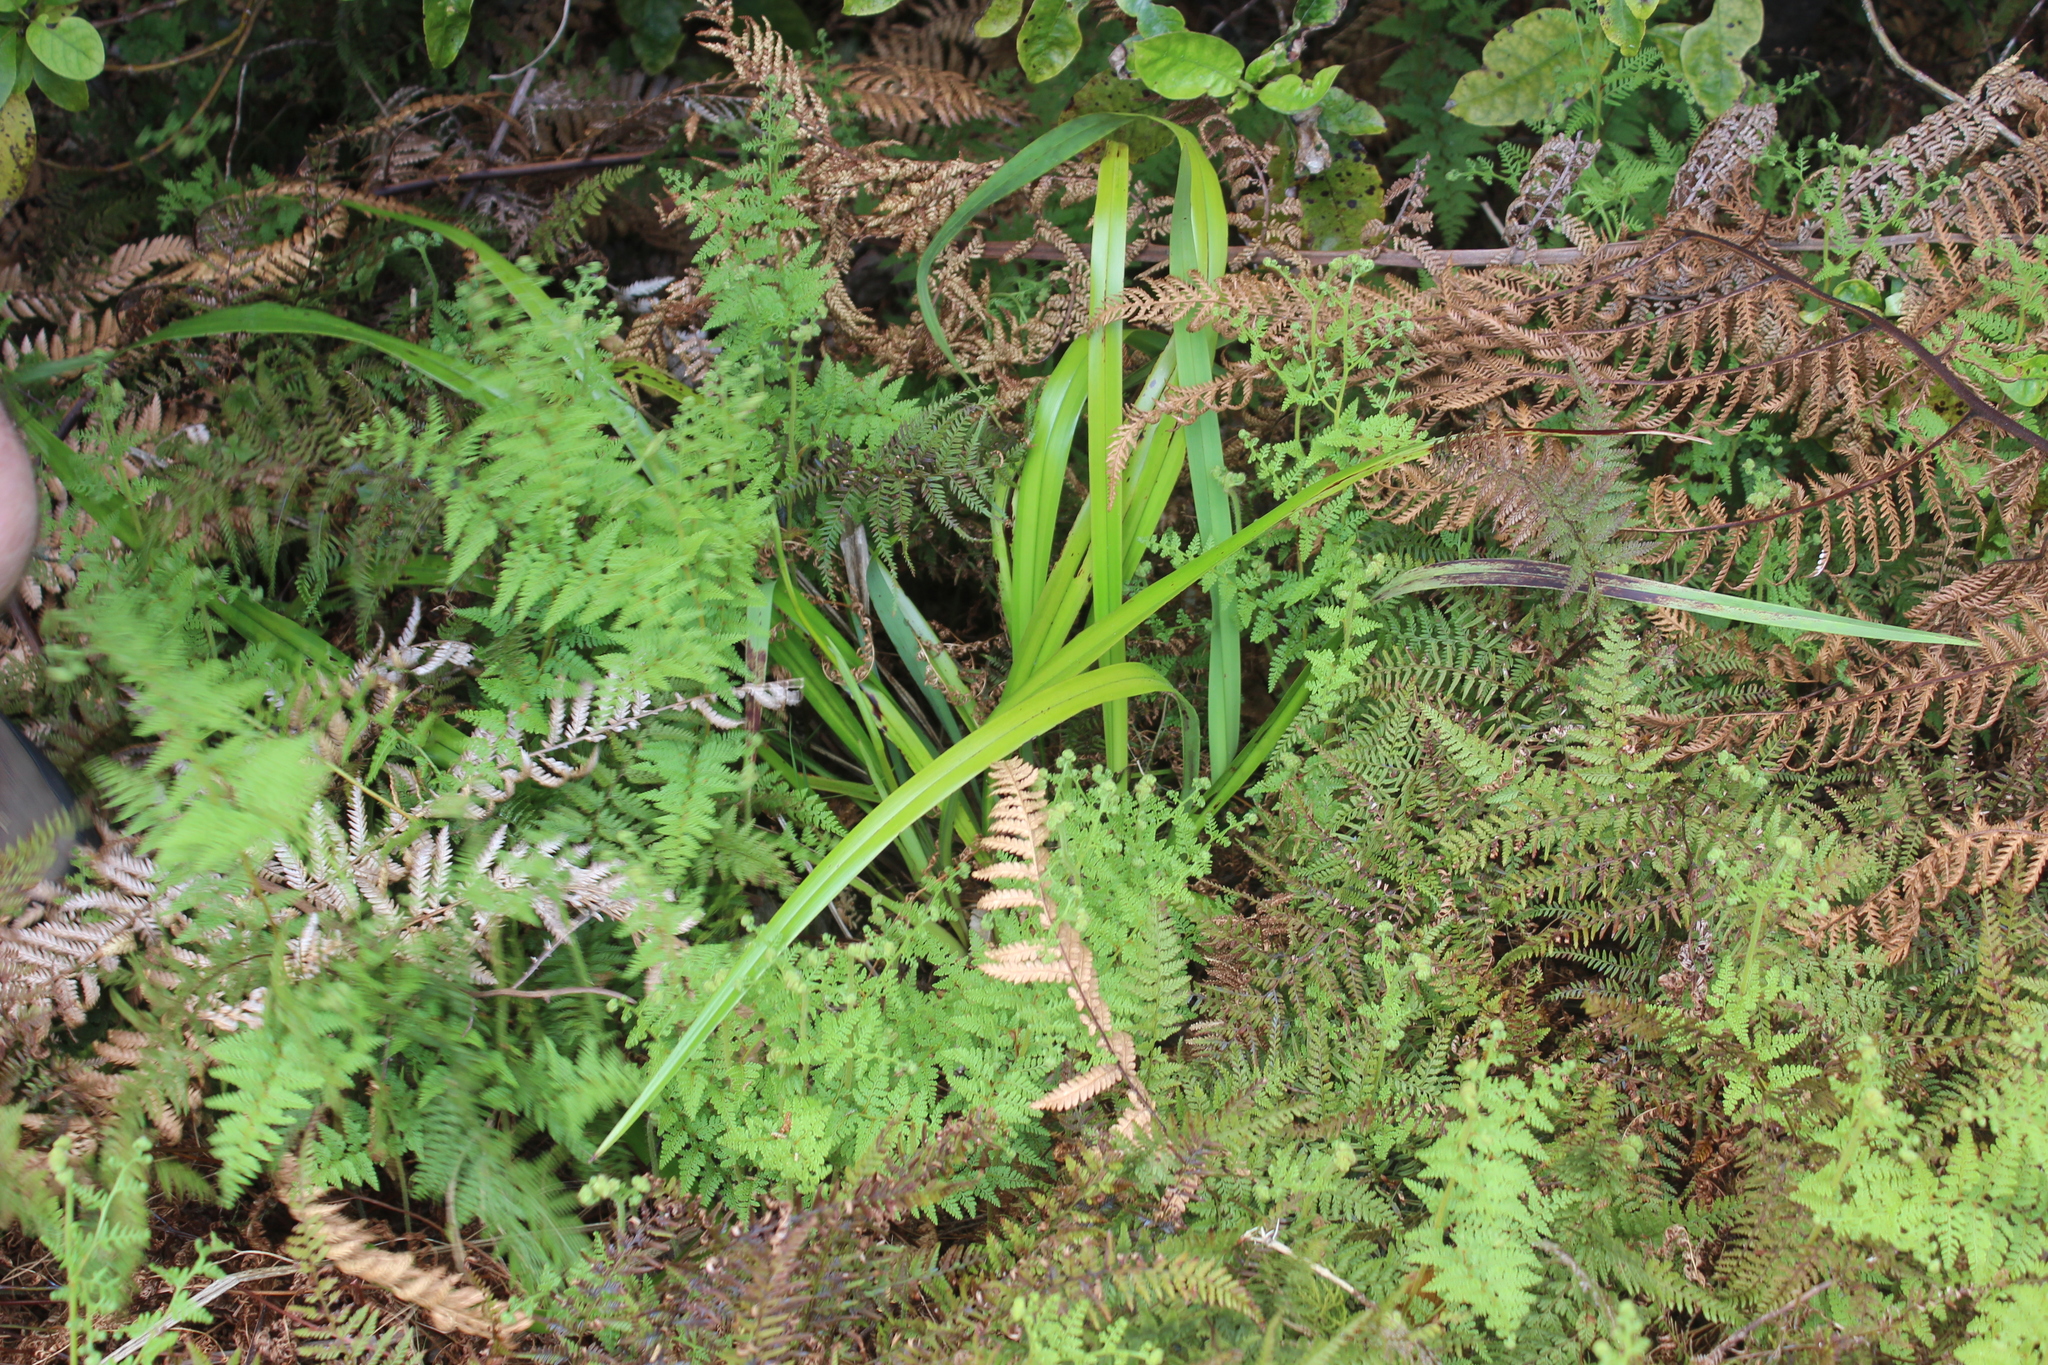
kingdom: Plantae
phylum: Tracheophyta
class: Liliopsida
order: Asparagales
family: Asphodelaceae
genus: Dianella
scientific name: Dianella nigra
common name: New zealand-blueberry
